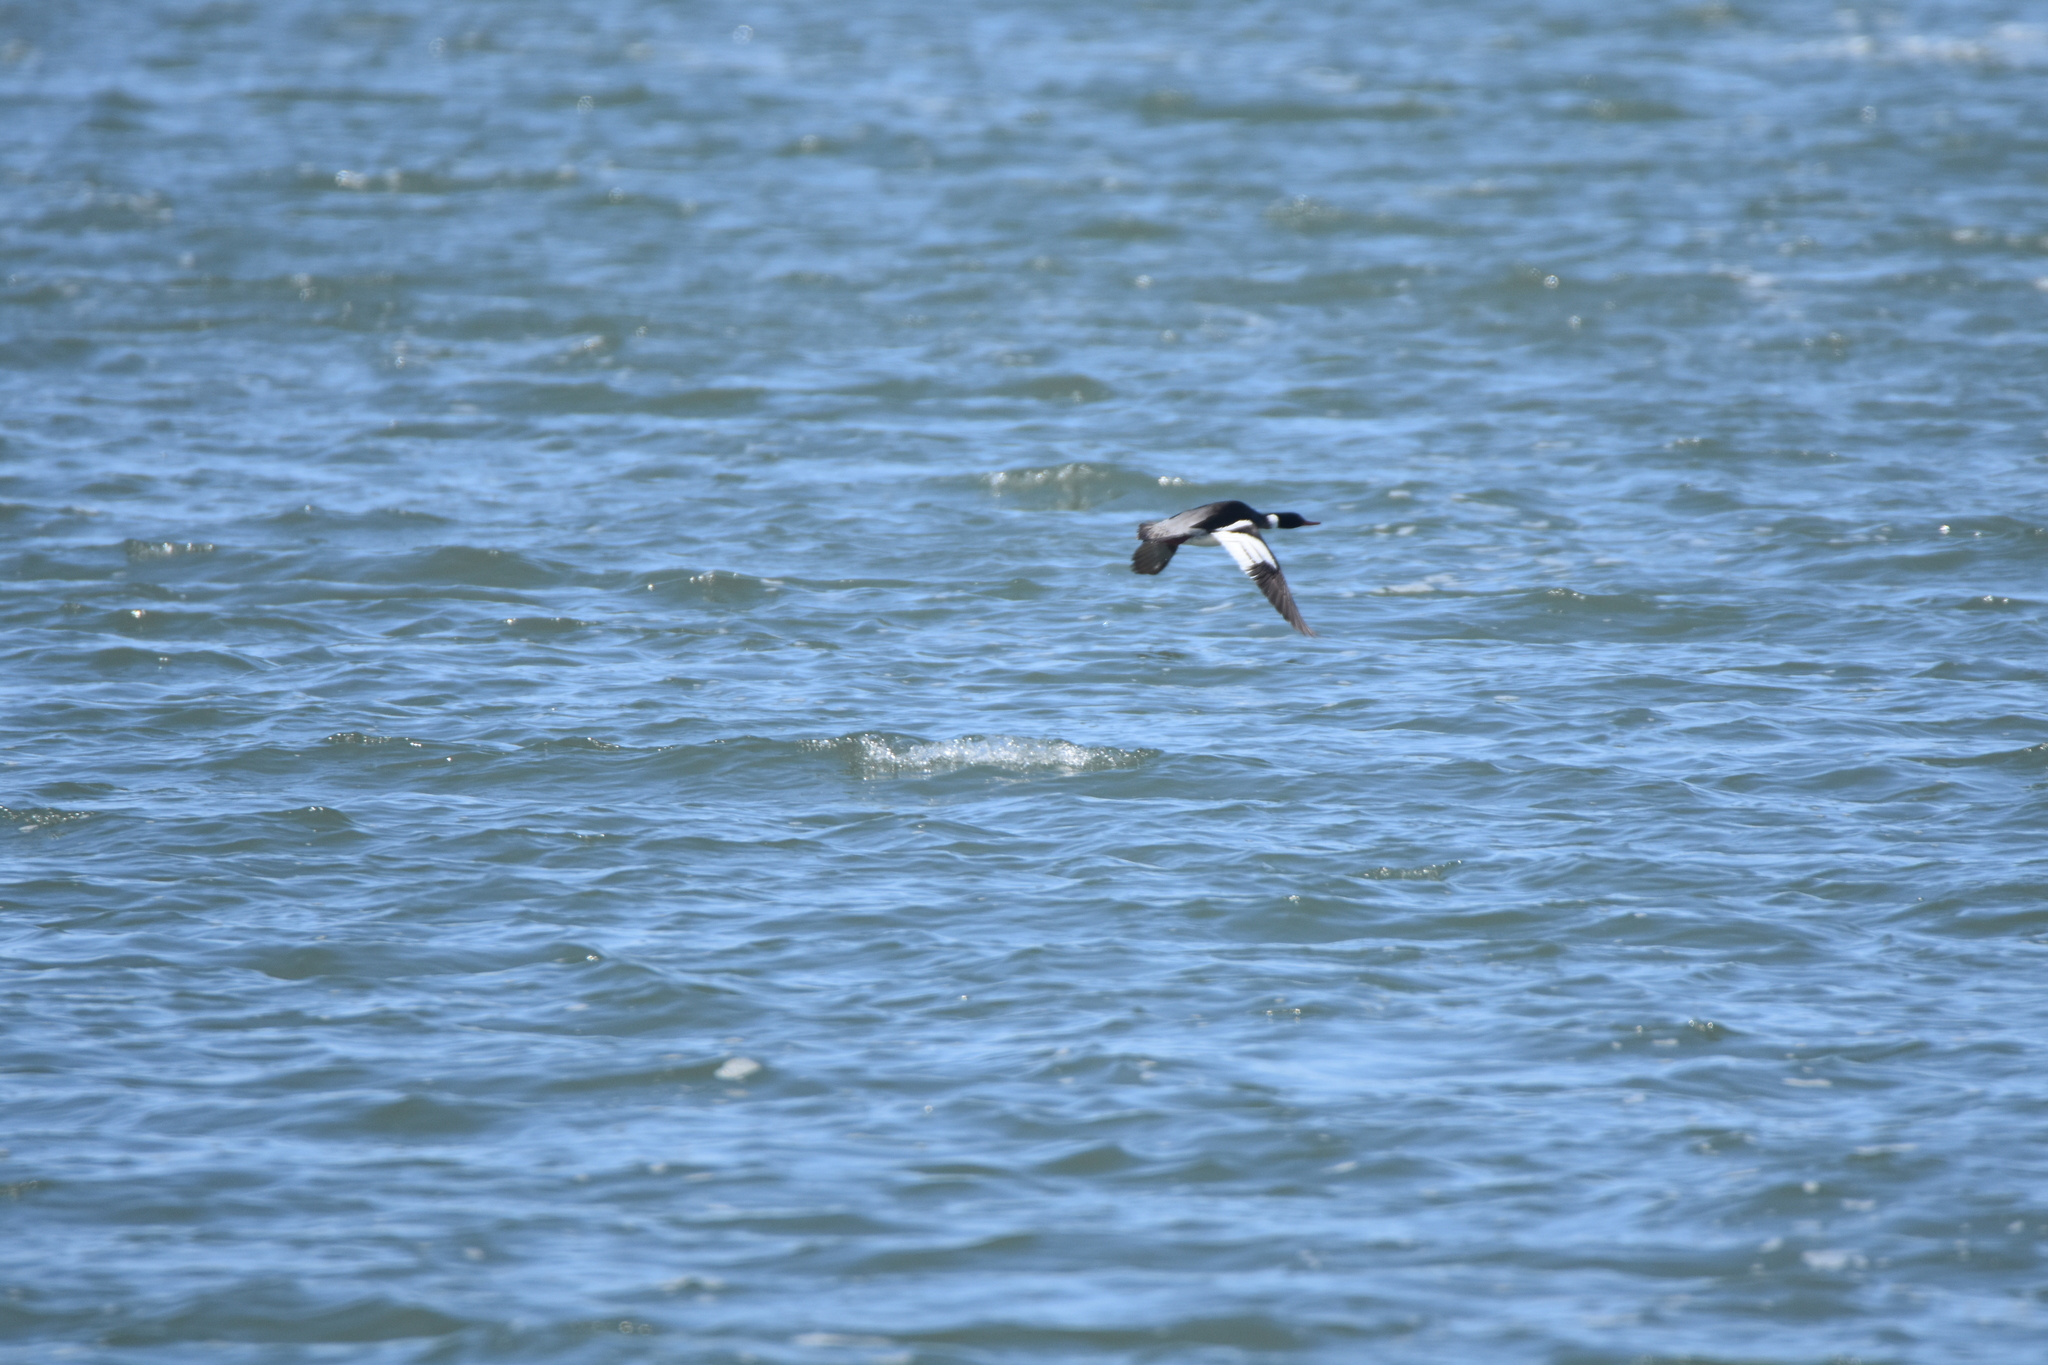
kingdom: Animalia
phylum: Chordata
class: Aves
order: Anseriformes
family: Anatidae
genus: Mergus
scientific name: Mergus serrator
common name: Red-breasted merganser
